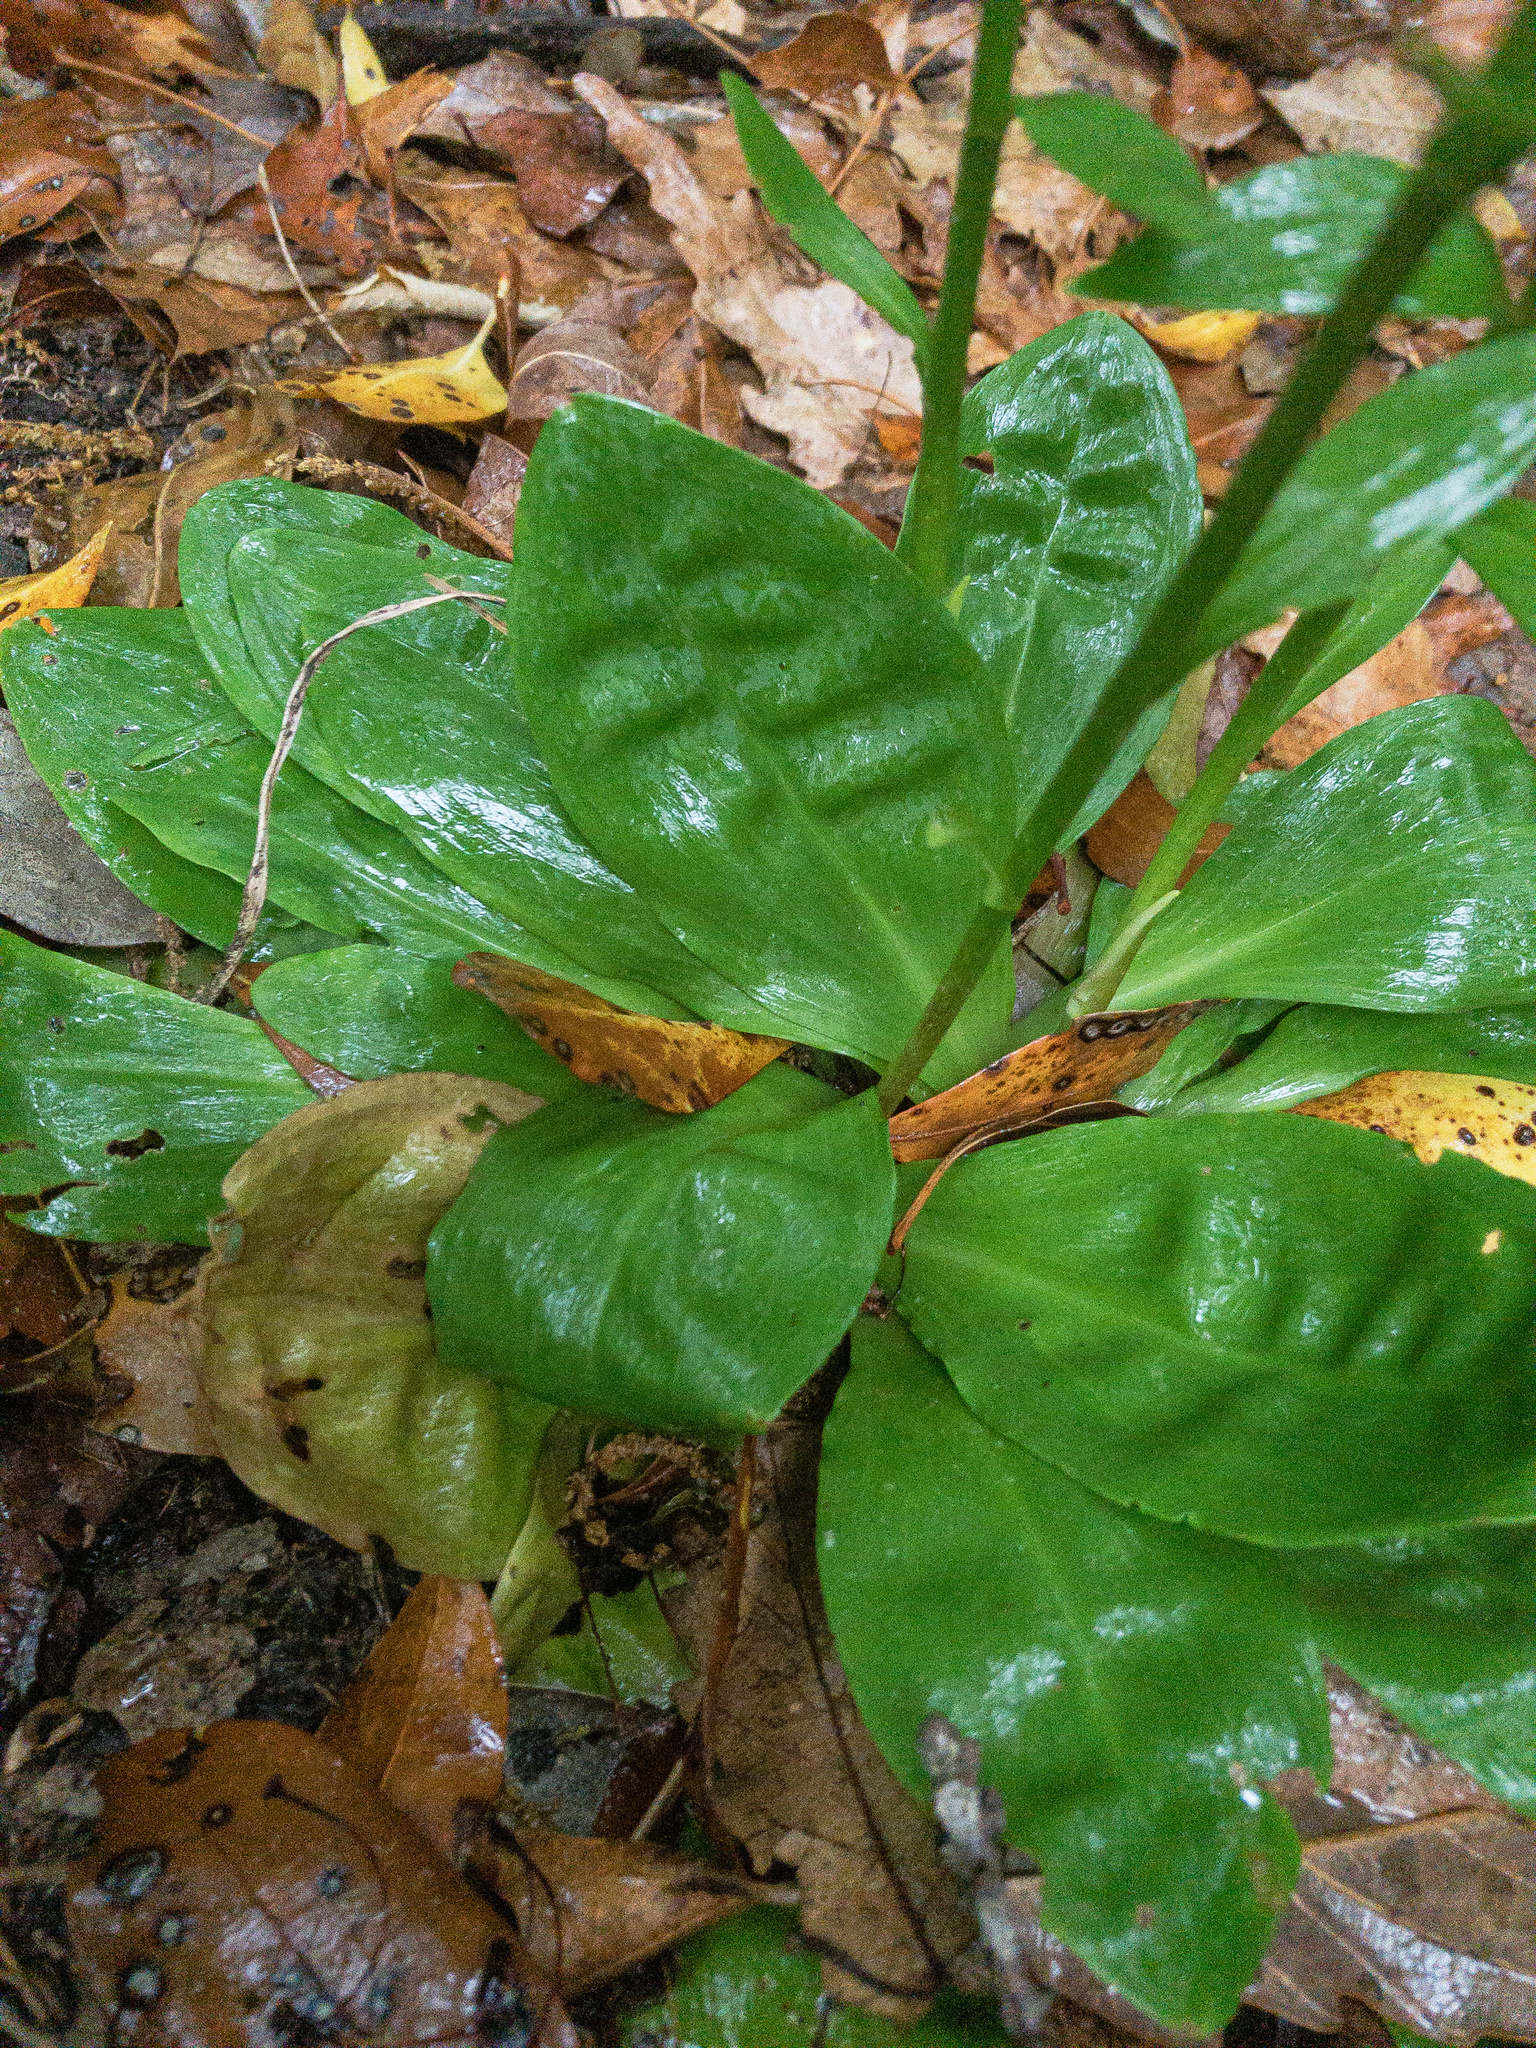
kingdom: Plantae
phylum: Tracheophyta
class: Liliopsida
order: Liliales
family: Melanthiaceae
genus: Chamaelirium
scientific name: Chamaelirium luteum
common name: Fairy-wand
